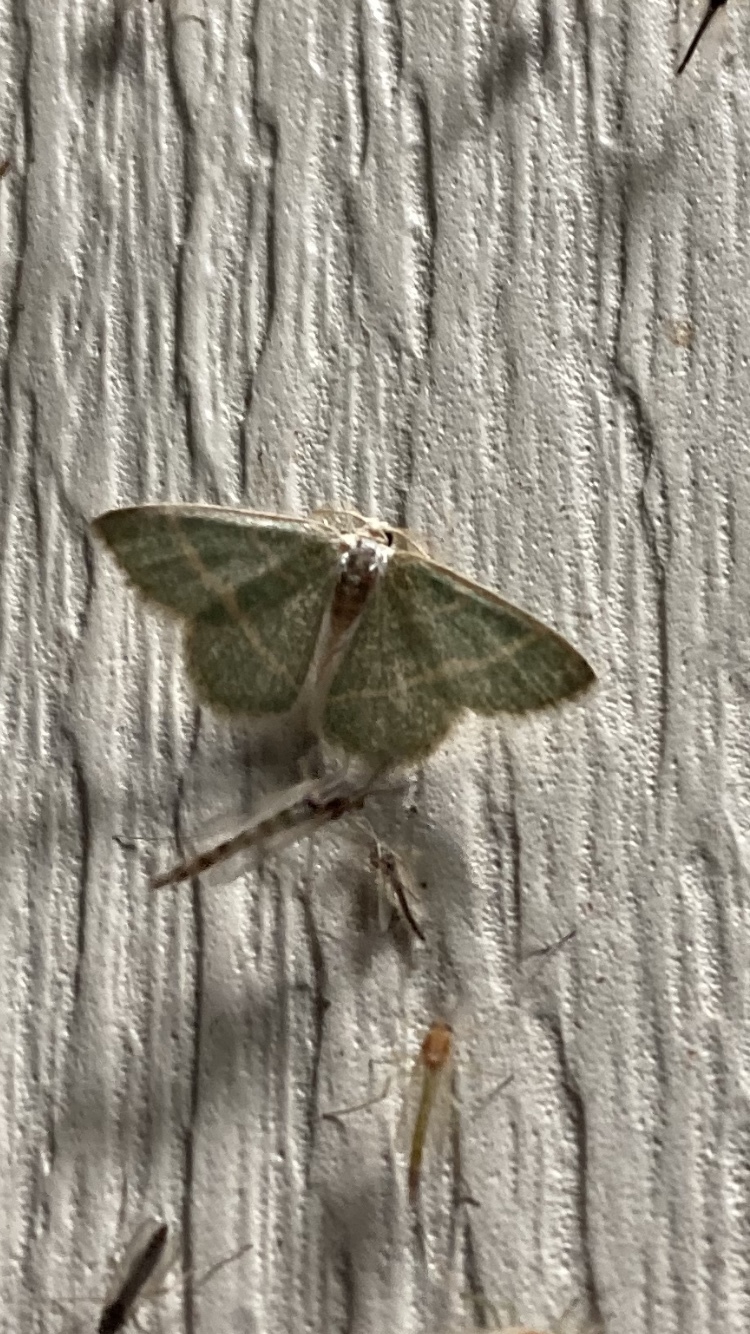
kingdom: Animalia
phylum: Arthropoda
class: Insecta
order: Lepidoptera
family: Geometridae
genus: Chlorochlamys
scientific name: Chlorochlamys chloroleucaria
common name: Blackberry looper
